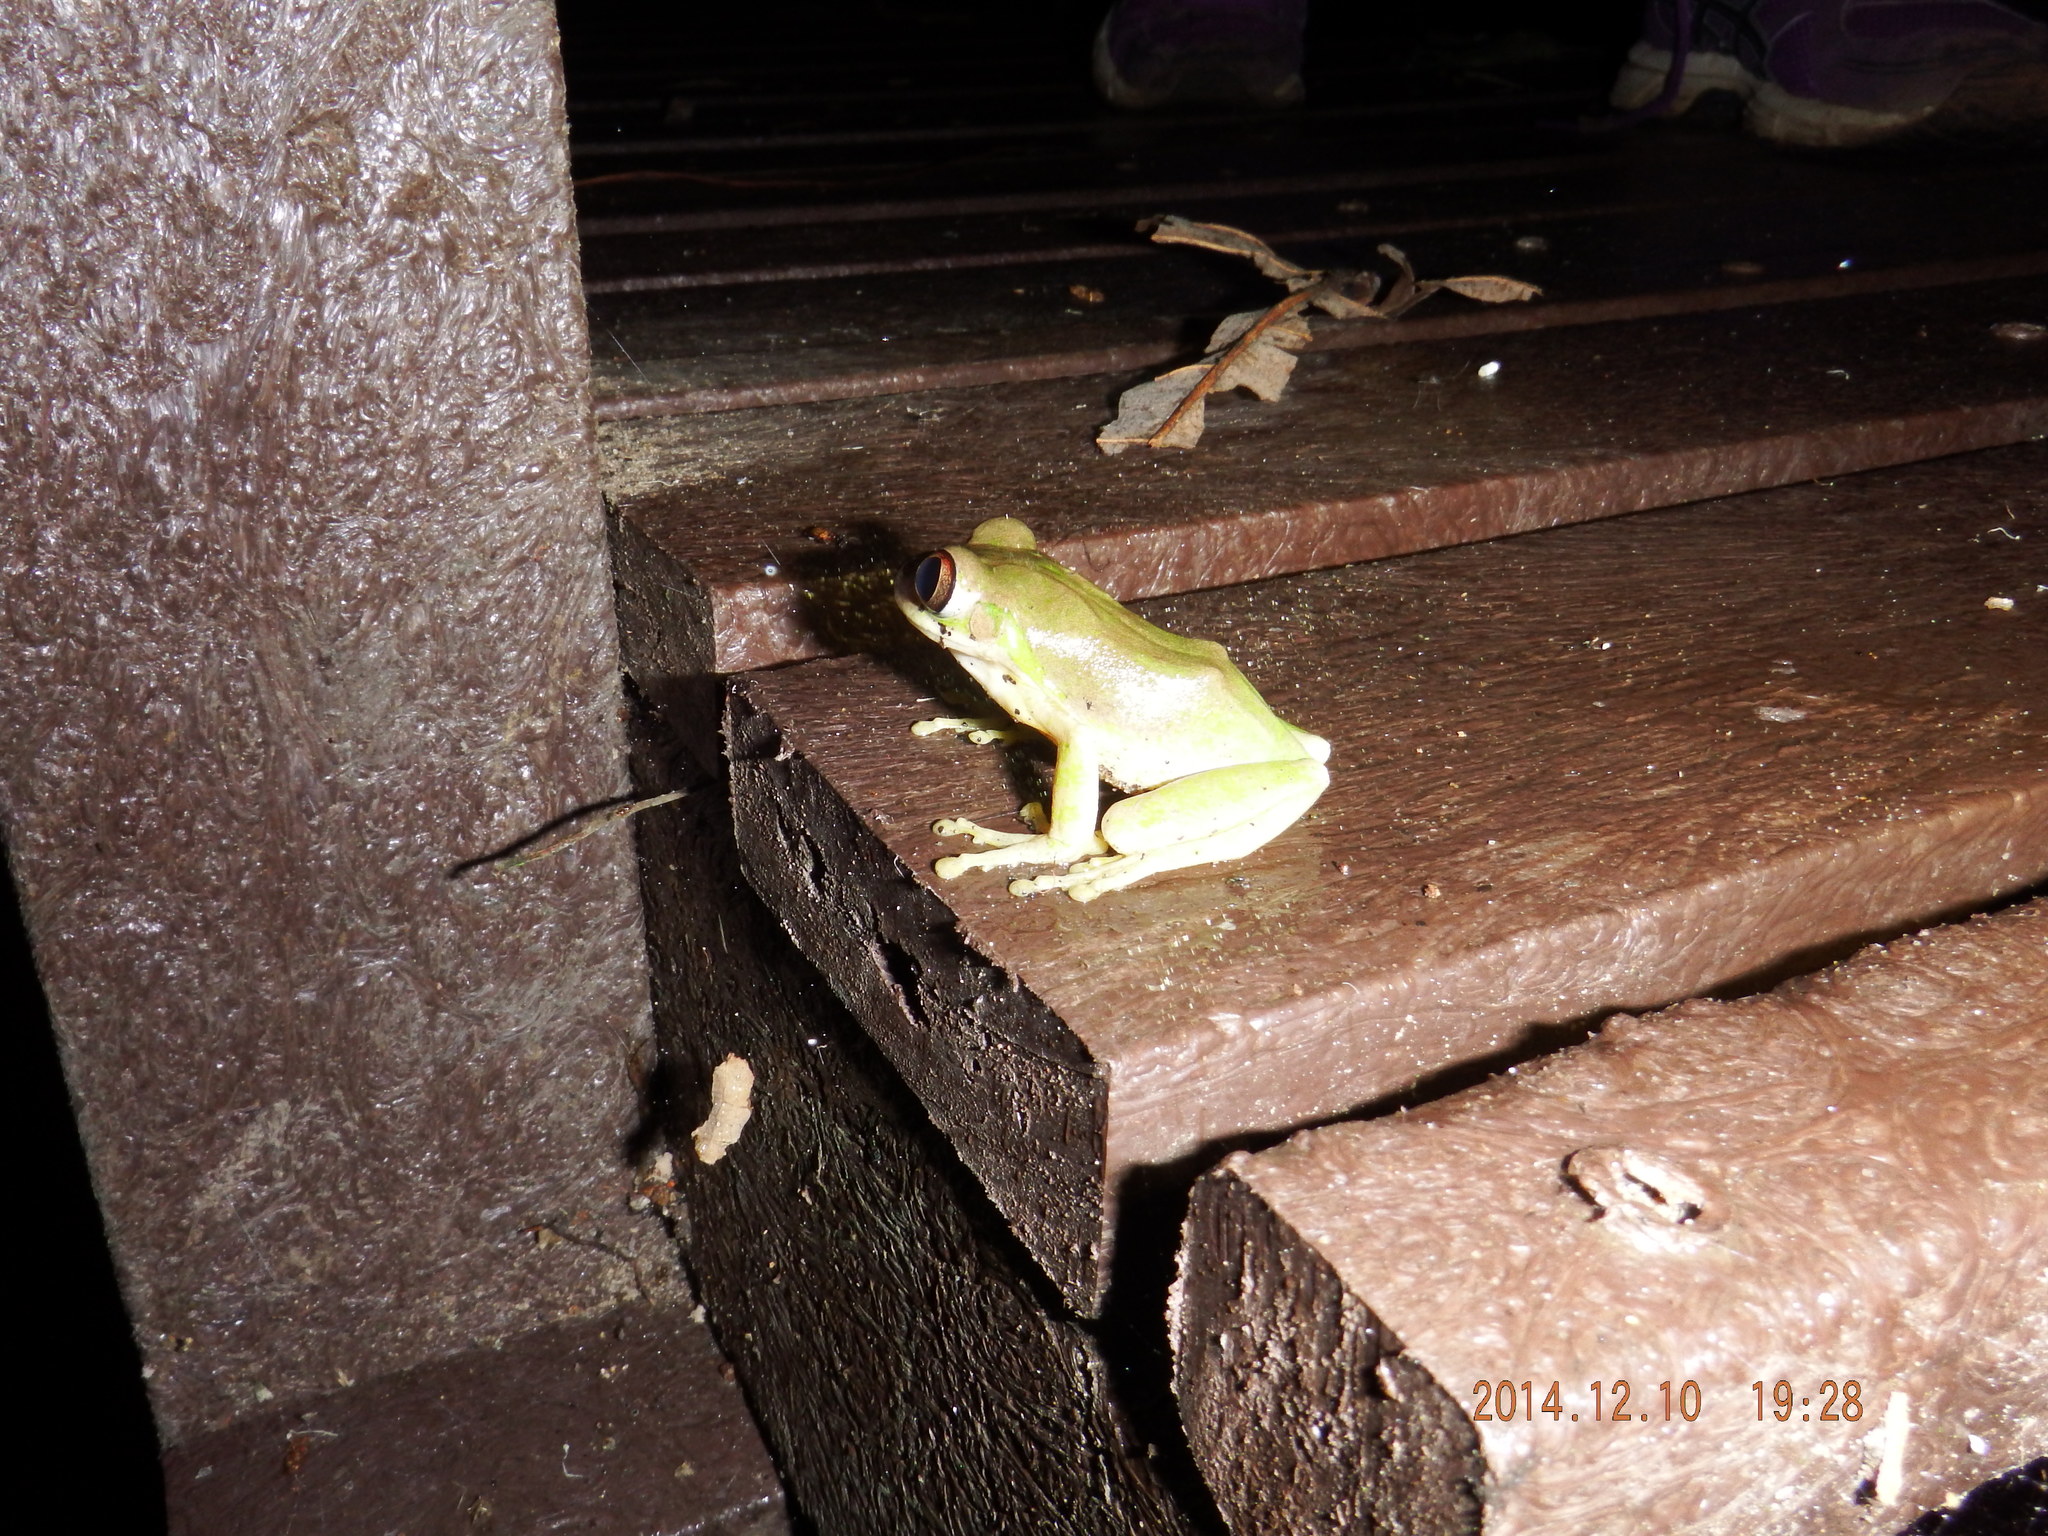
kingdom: Animalia
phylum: Chordata
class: Amphibia
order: Anura
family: Arthroleptidae
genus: Leptopelis
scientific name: Leptopelis natalensis
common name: Natal tree frog
